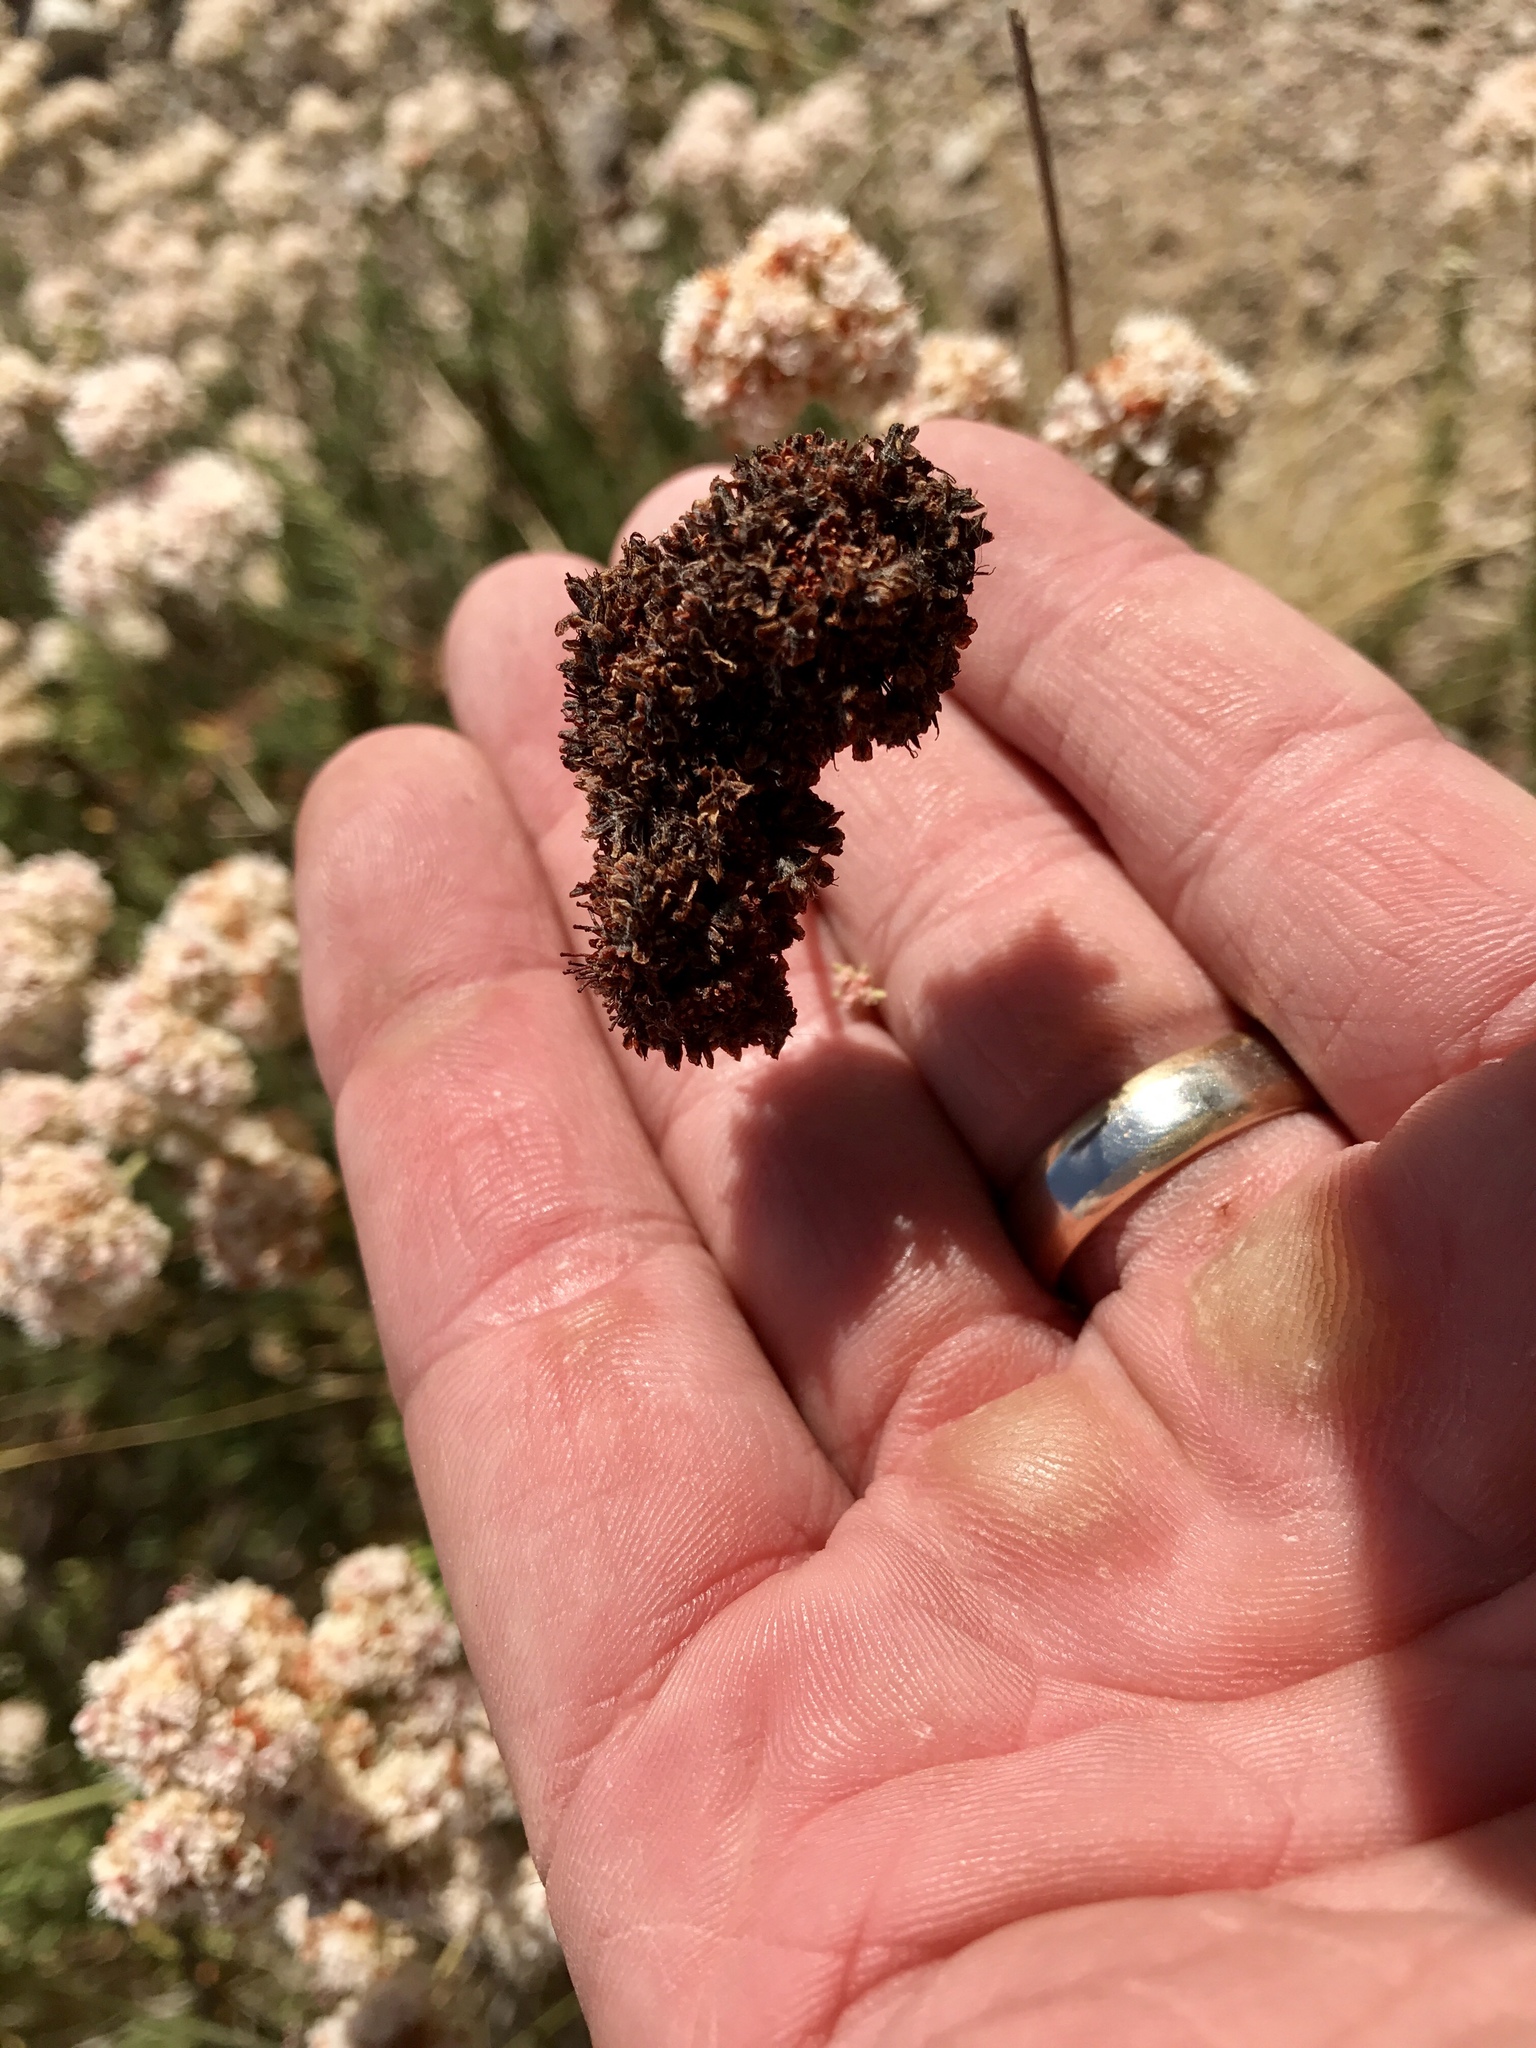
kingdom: Plantae
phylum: Tracheophyta
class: Magnoliopsida
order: Caryophyllales
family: Polygonaceae
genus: Eriogonum
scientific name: Eriogonum fasciculatum
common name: California wild buckwheat
